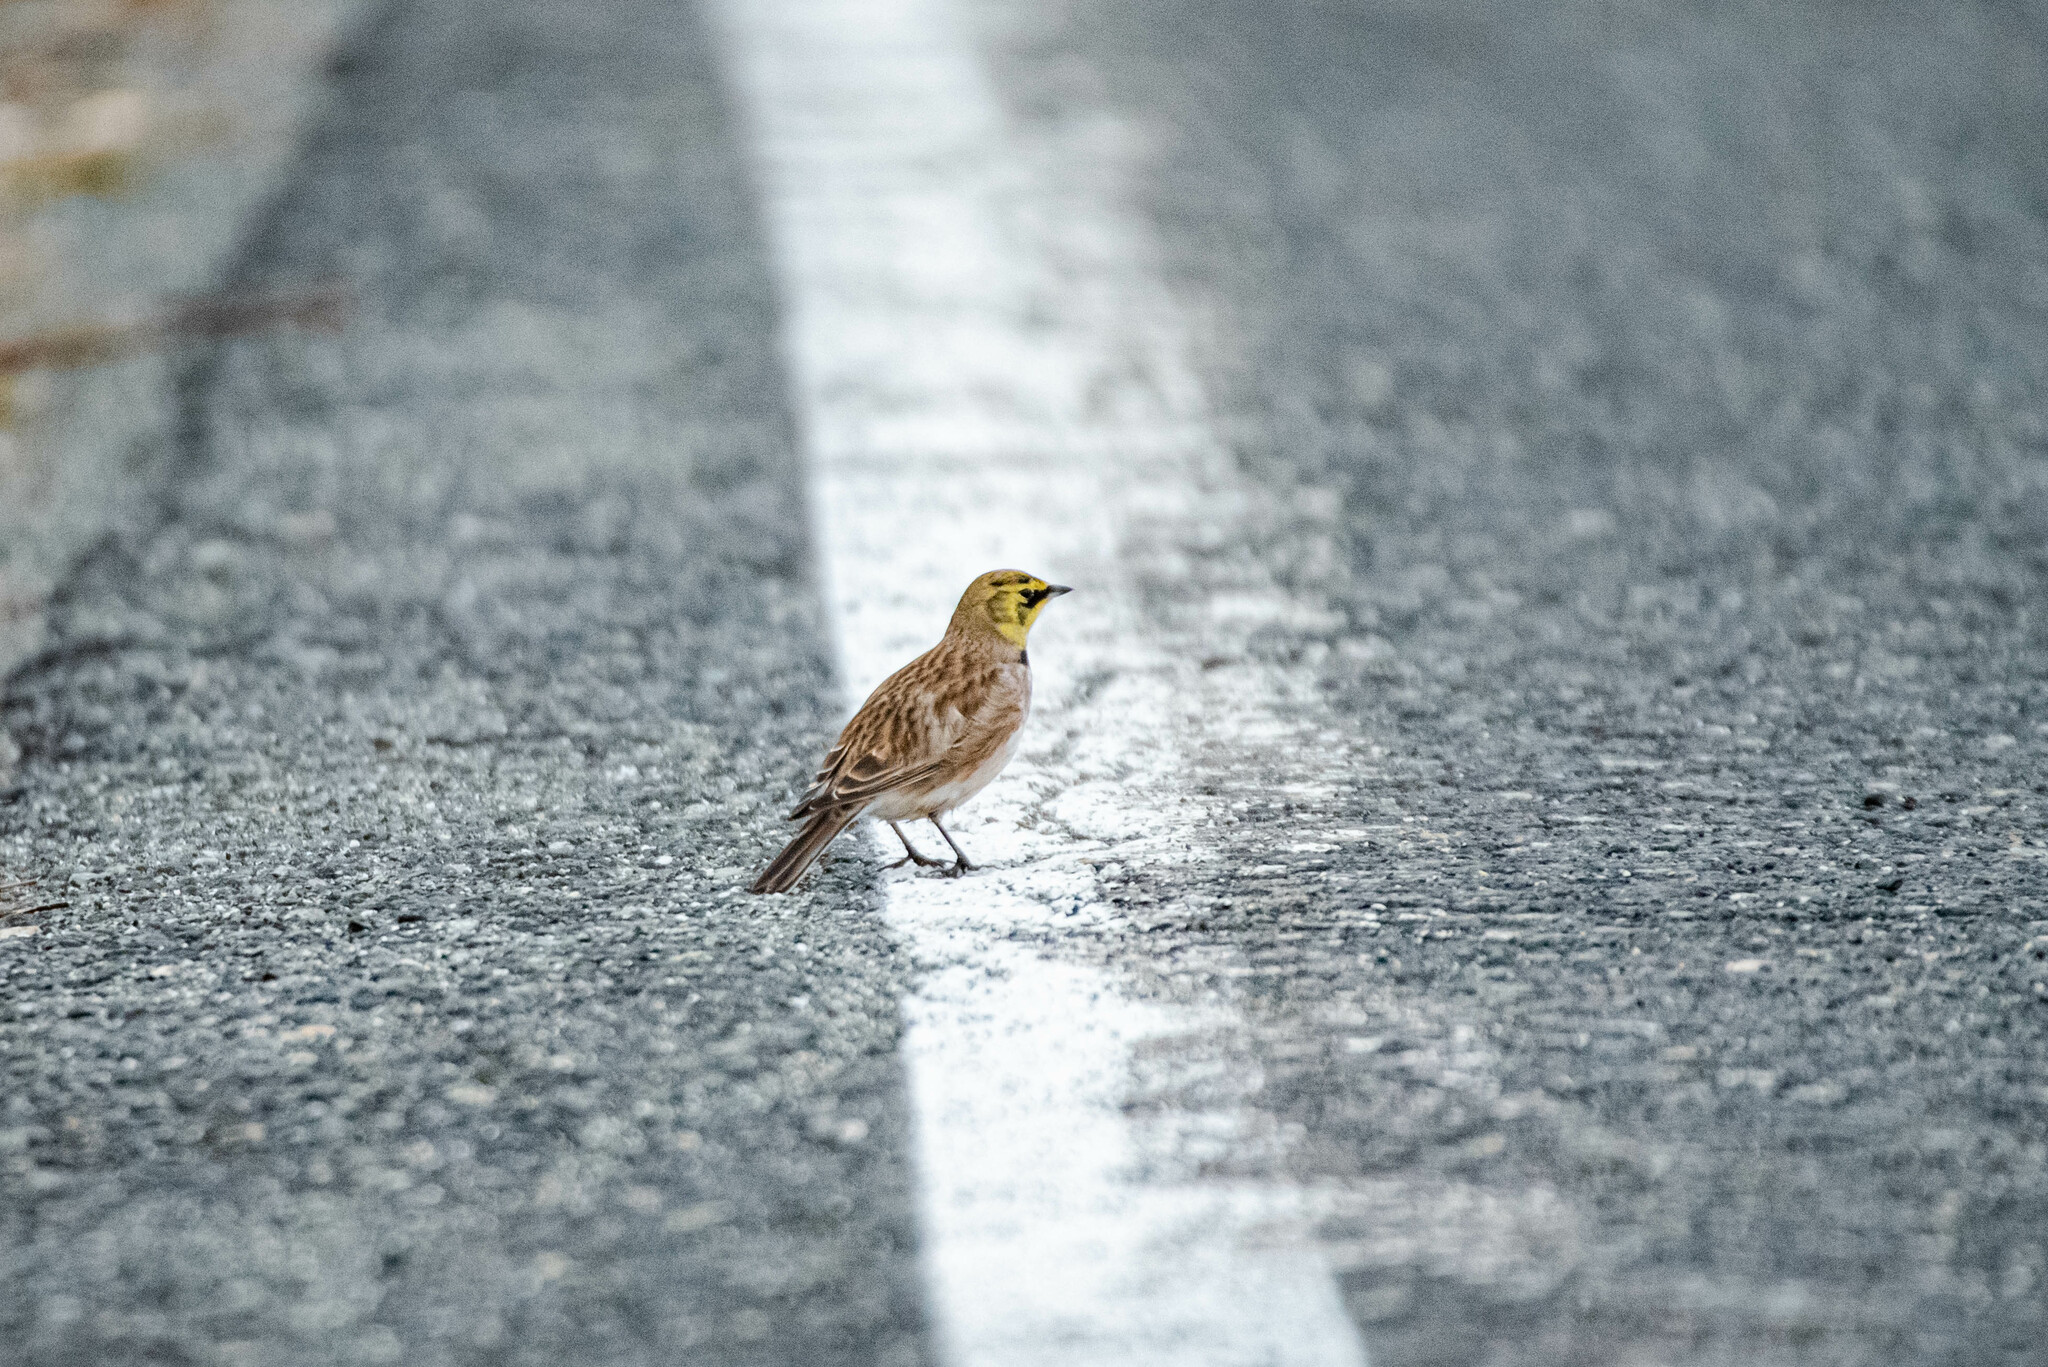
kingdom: Animalia
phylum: Chordata
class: Aves
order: Passeriformes
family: Alaudidae
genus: Eremophila
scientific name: Eremophila alpestris
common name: Horned lark
